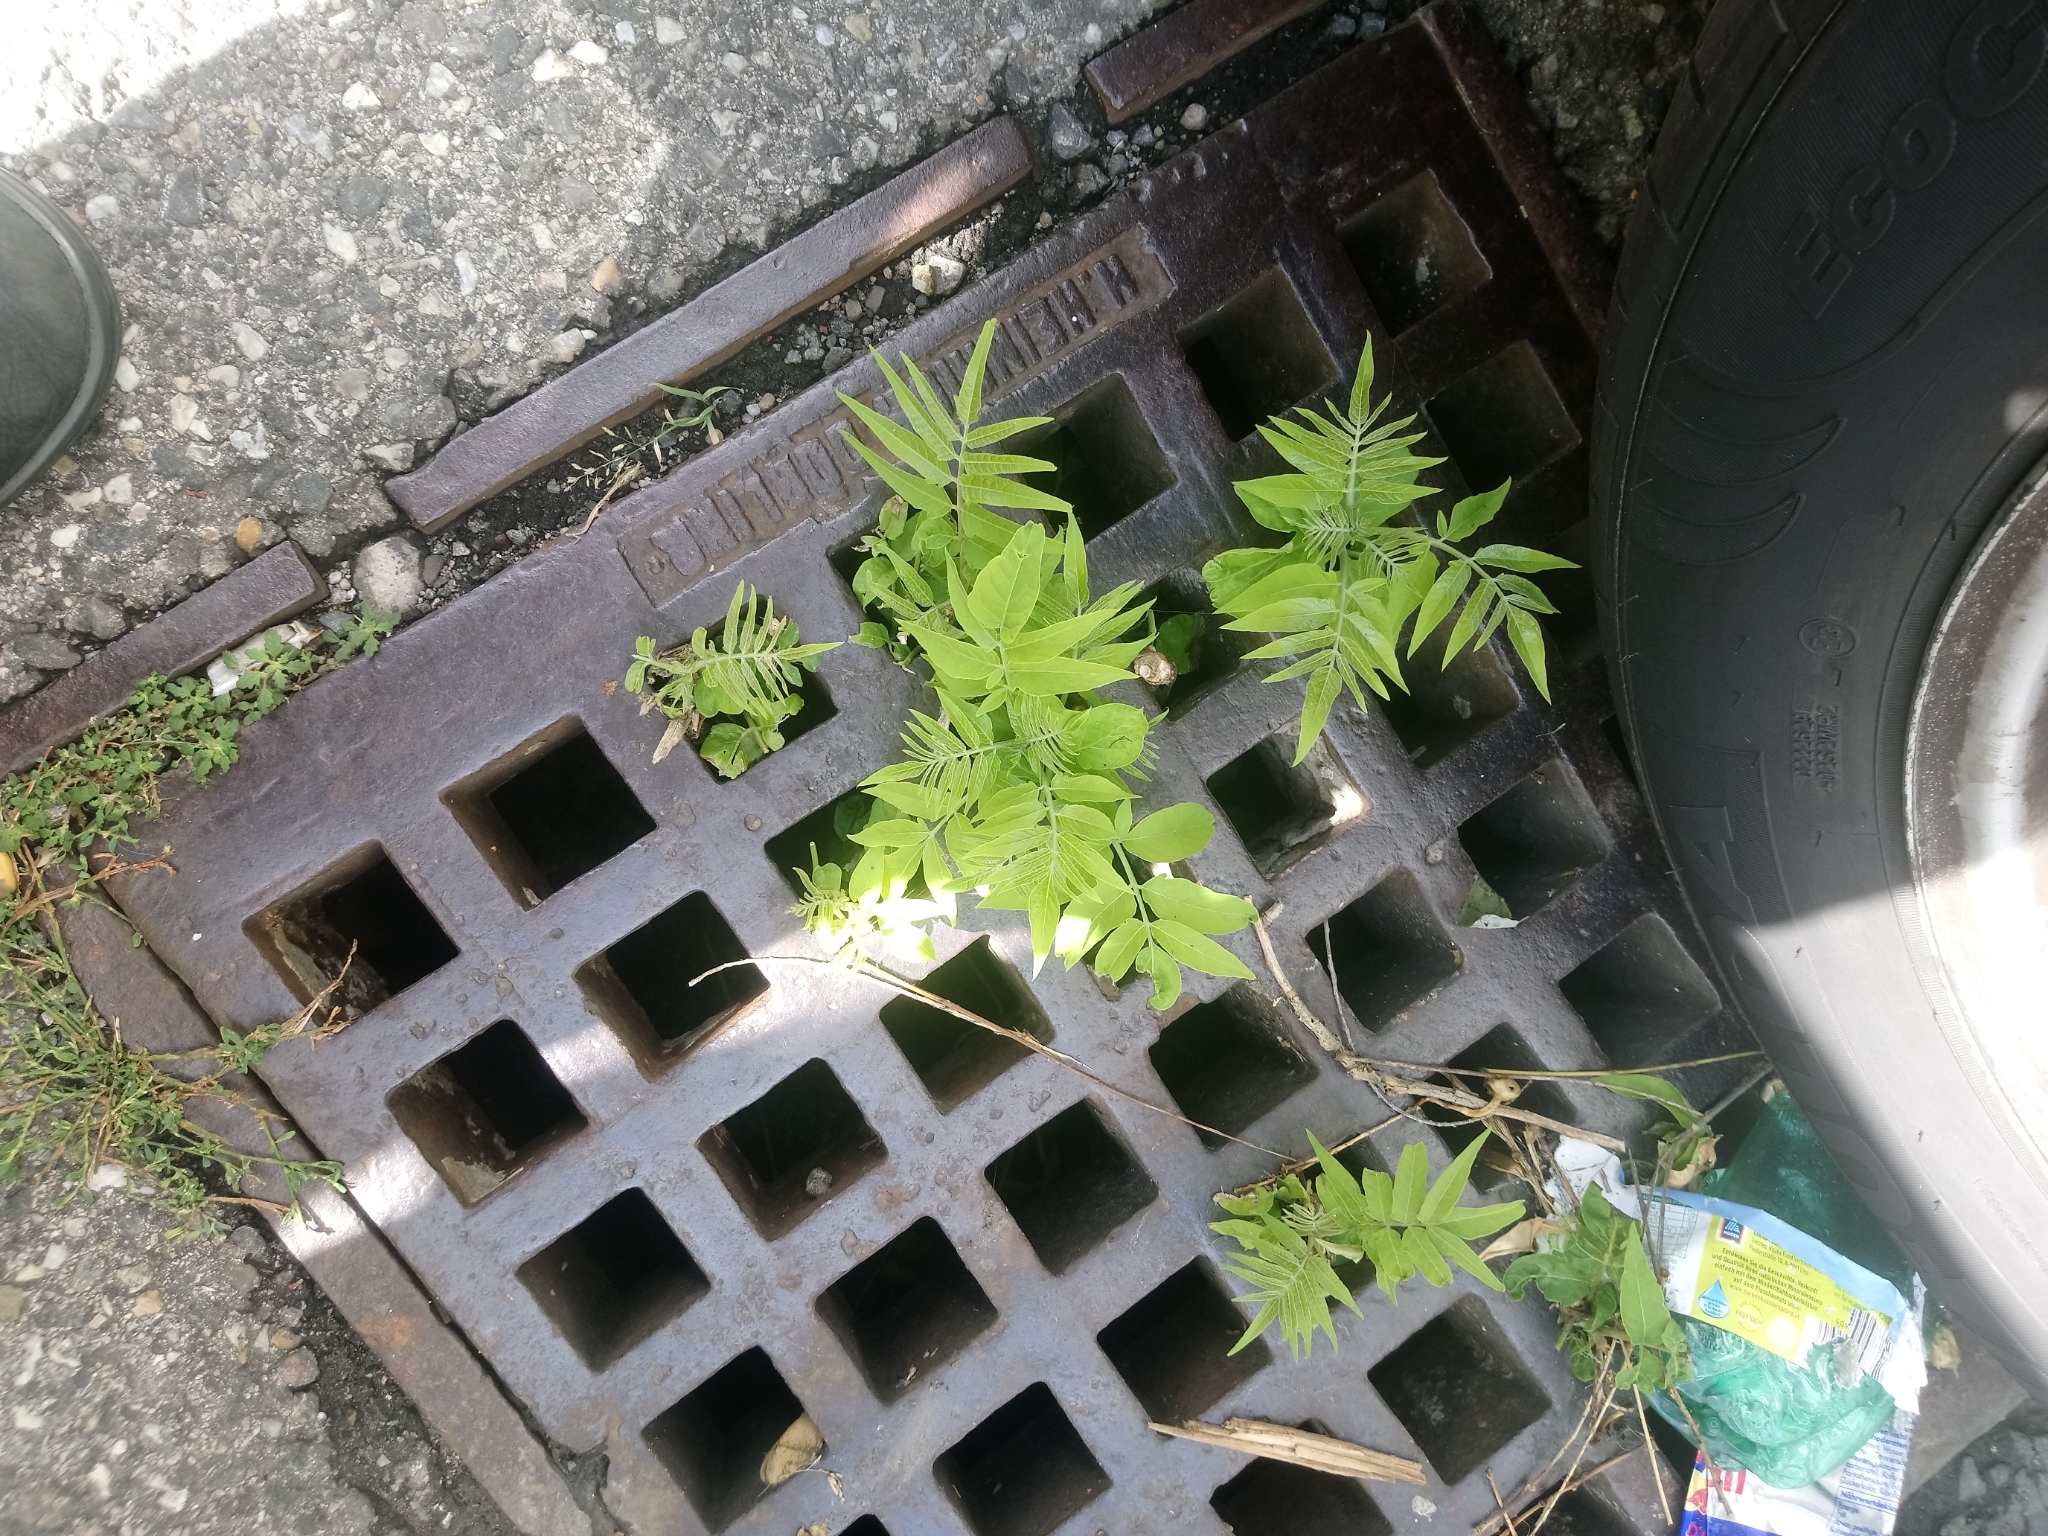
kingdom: Plantae
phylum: Tracheophyta
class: Magnoliopsida
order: Sapindales
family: Simaroubaceae
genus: Ailanthus
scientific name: Ailanthus altissima
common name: Tree-of-heaven
